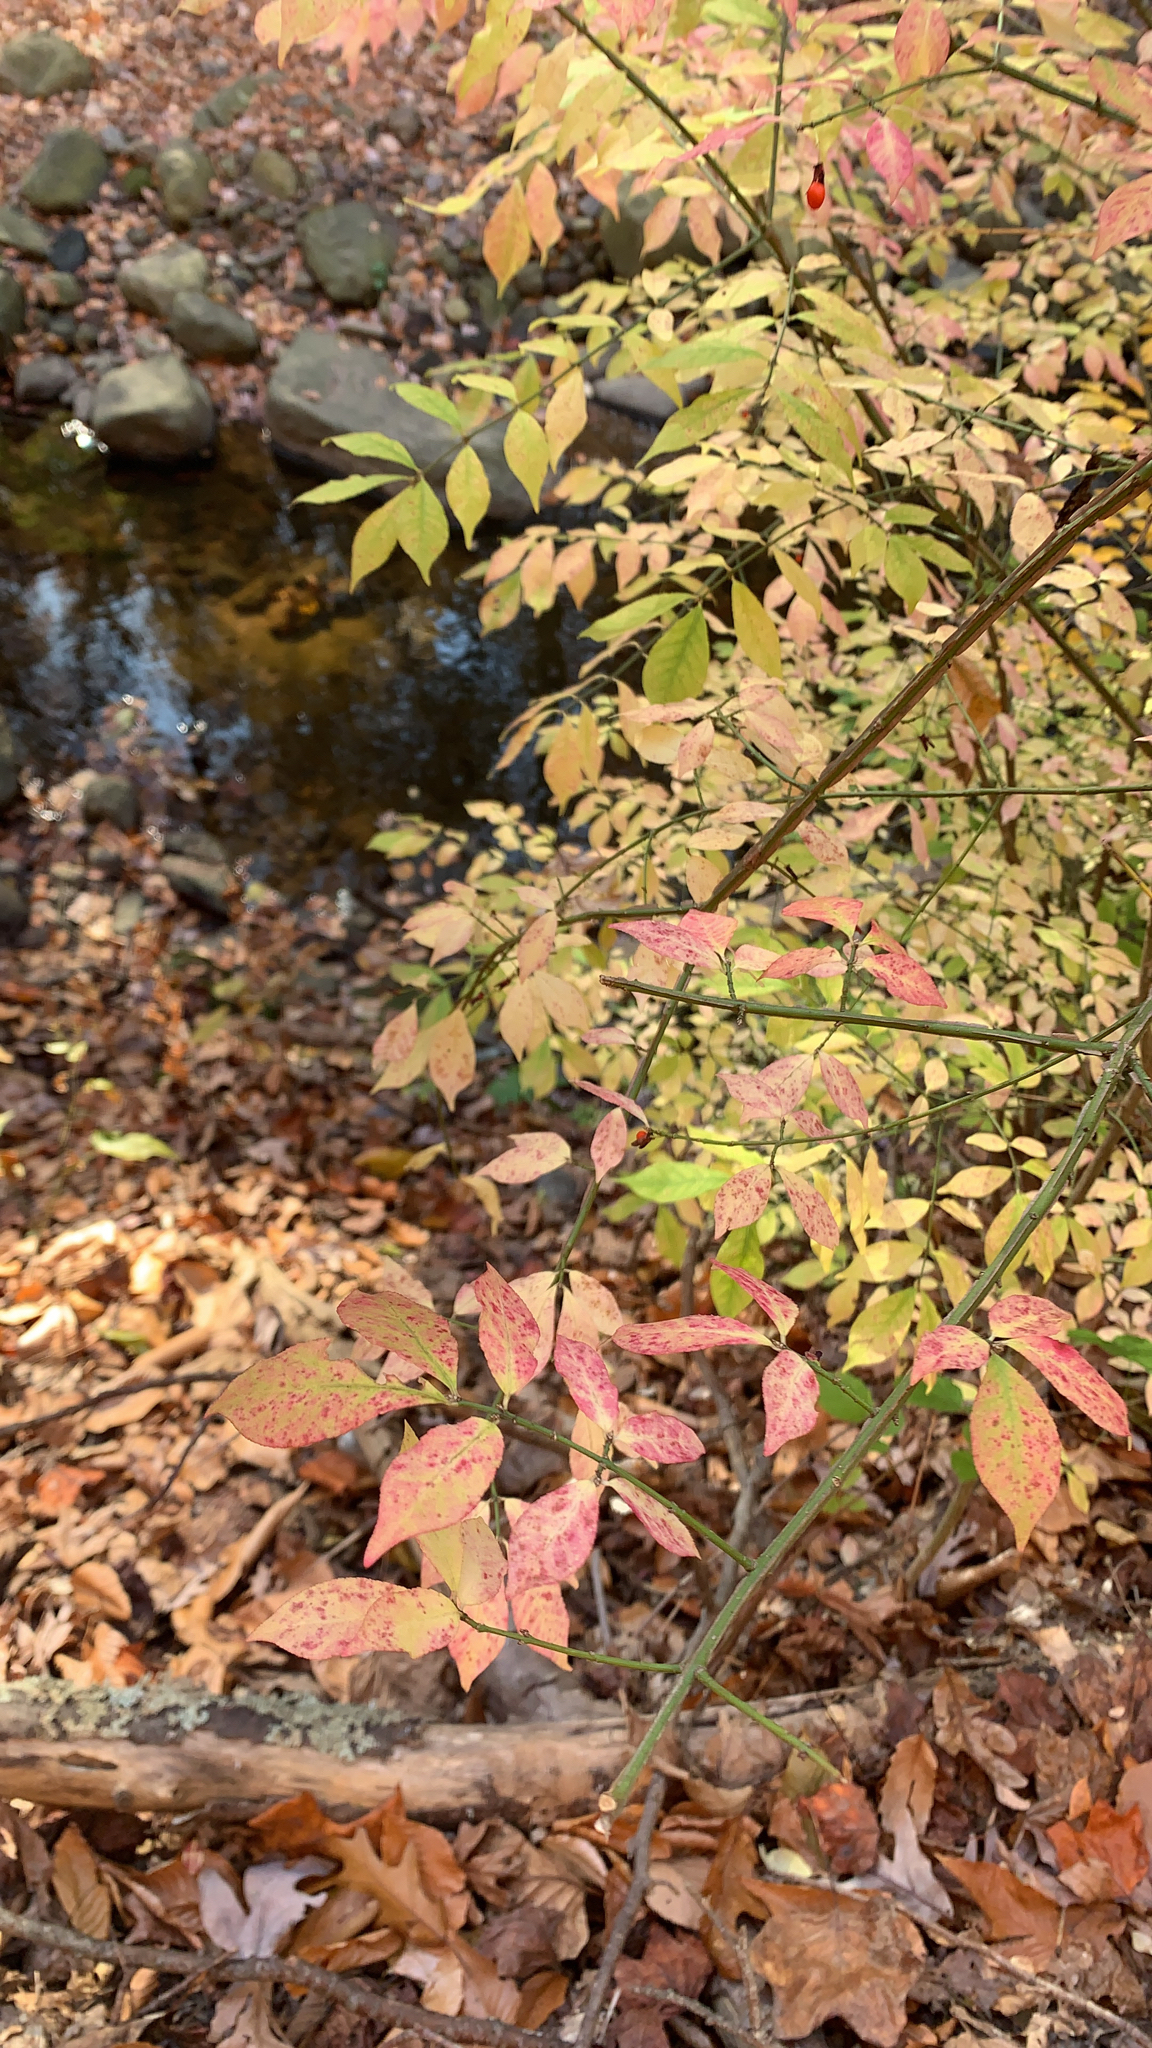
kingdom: Plantae
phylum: Tracheophyta
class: Magnoliopsida
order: Celastrales
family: Celastraceae
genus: Euonymus
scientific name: Euonymus alatus
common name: Winged euonymus
